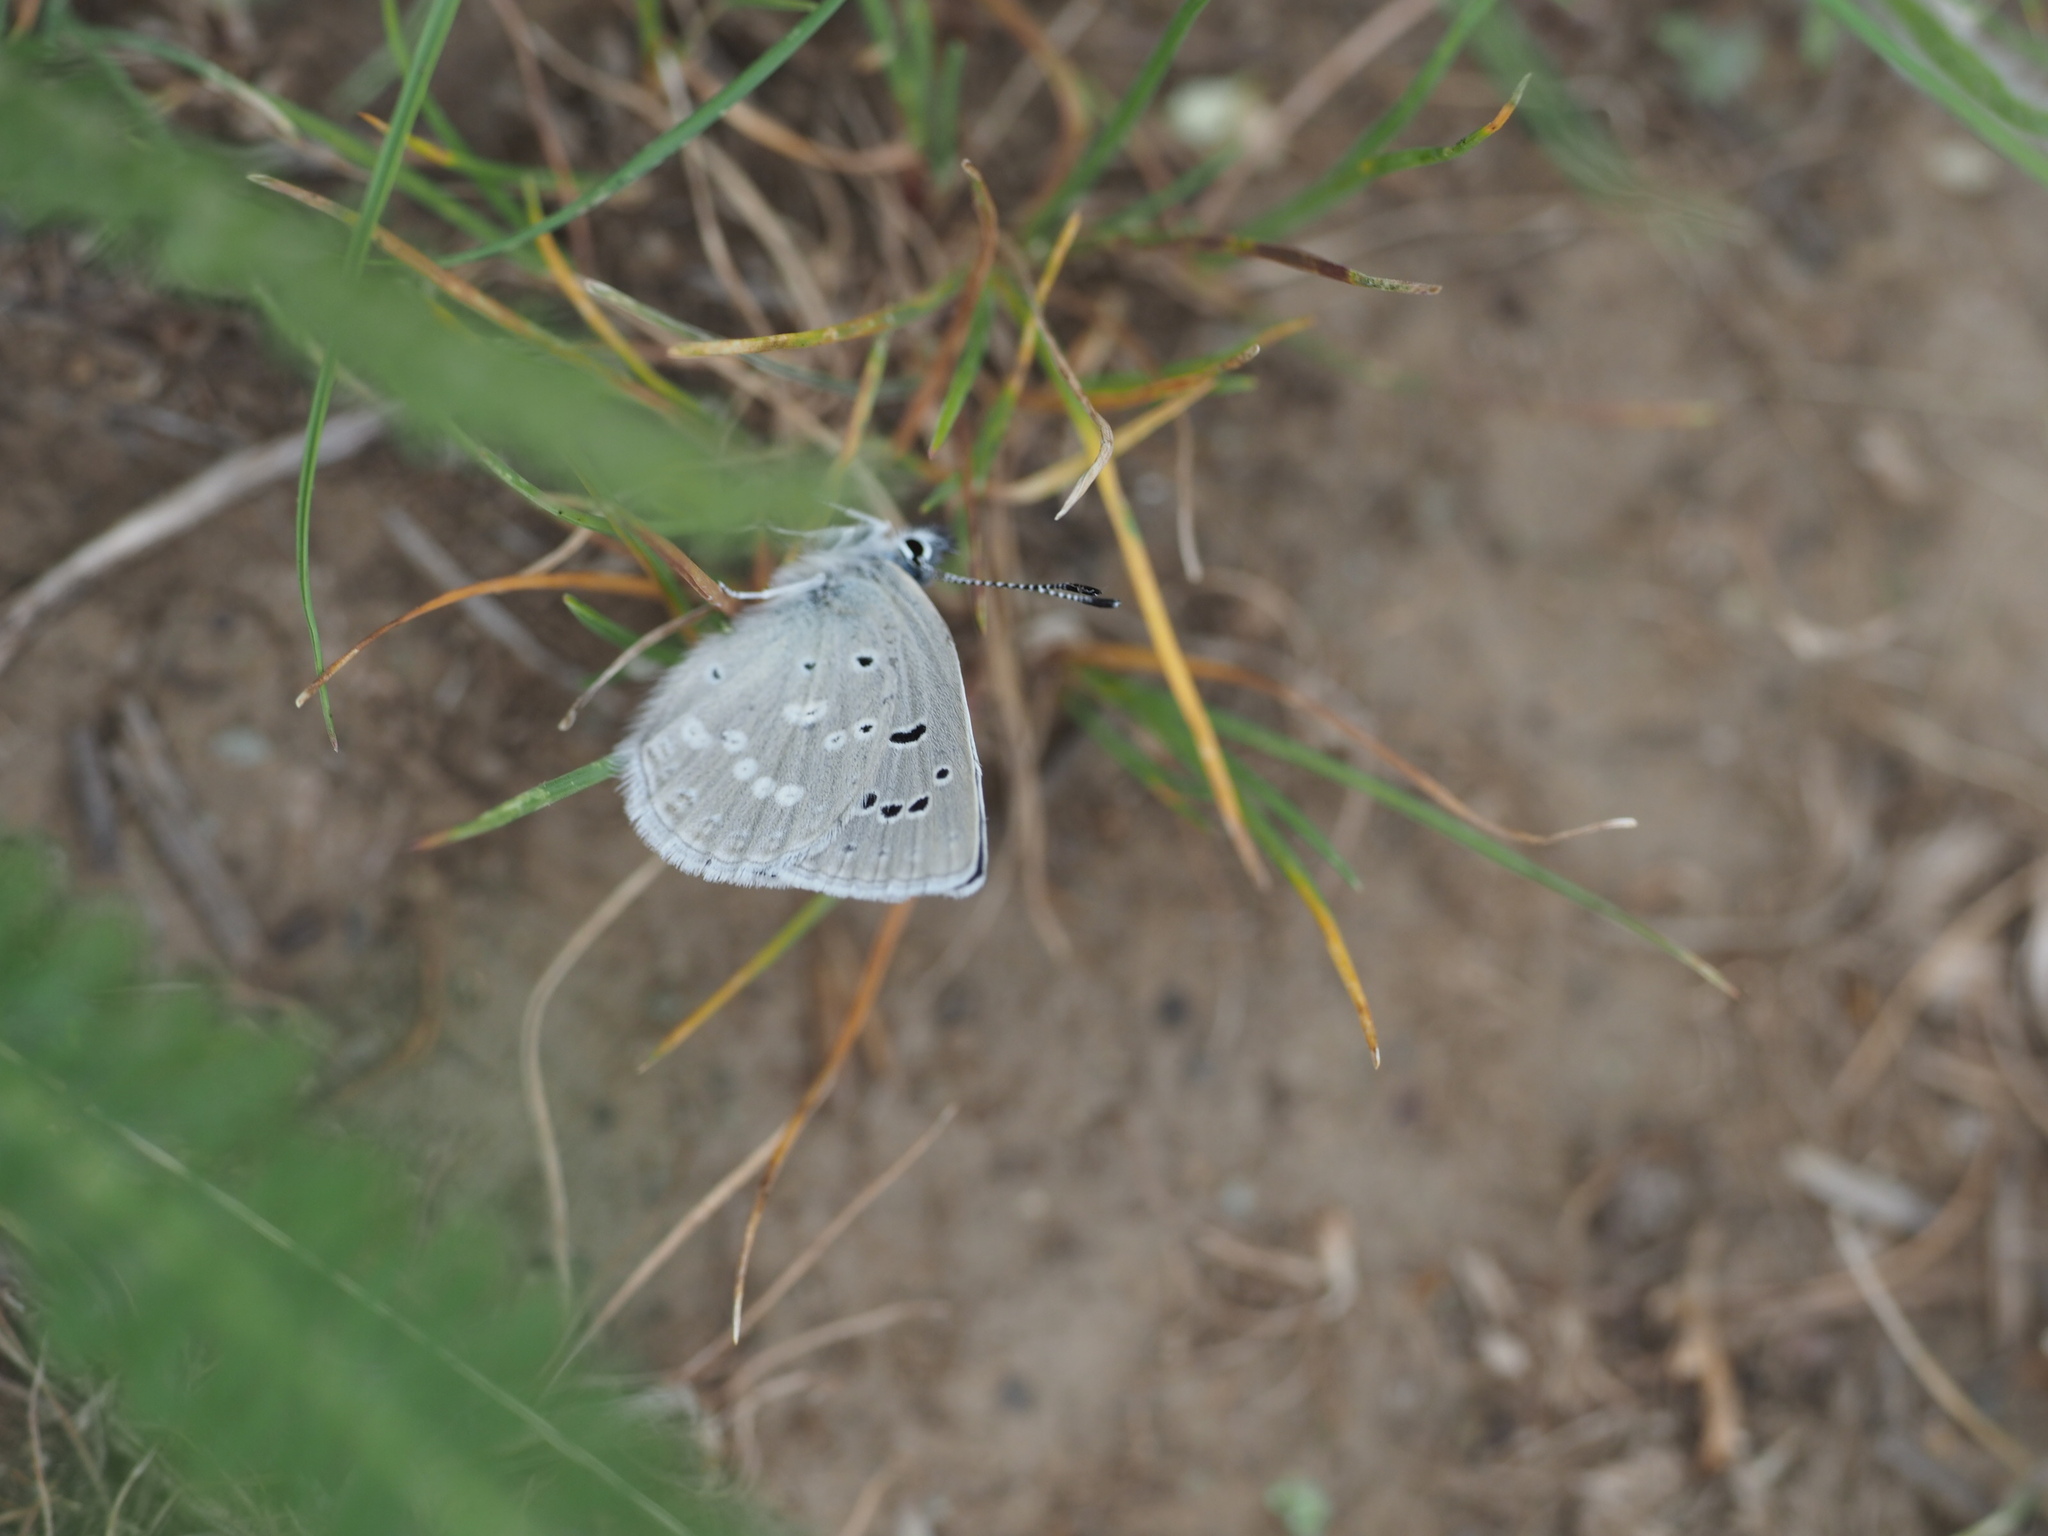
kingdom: Animalia
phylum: Arthropoda
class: Insecta
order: Lepidoptera
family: Lycaenidae
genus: Icaricia
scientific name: Icaricia icarioides
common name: Boisduval's blue
